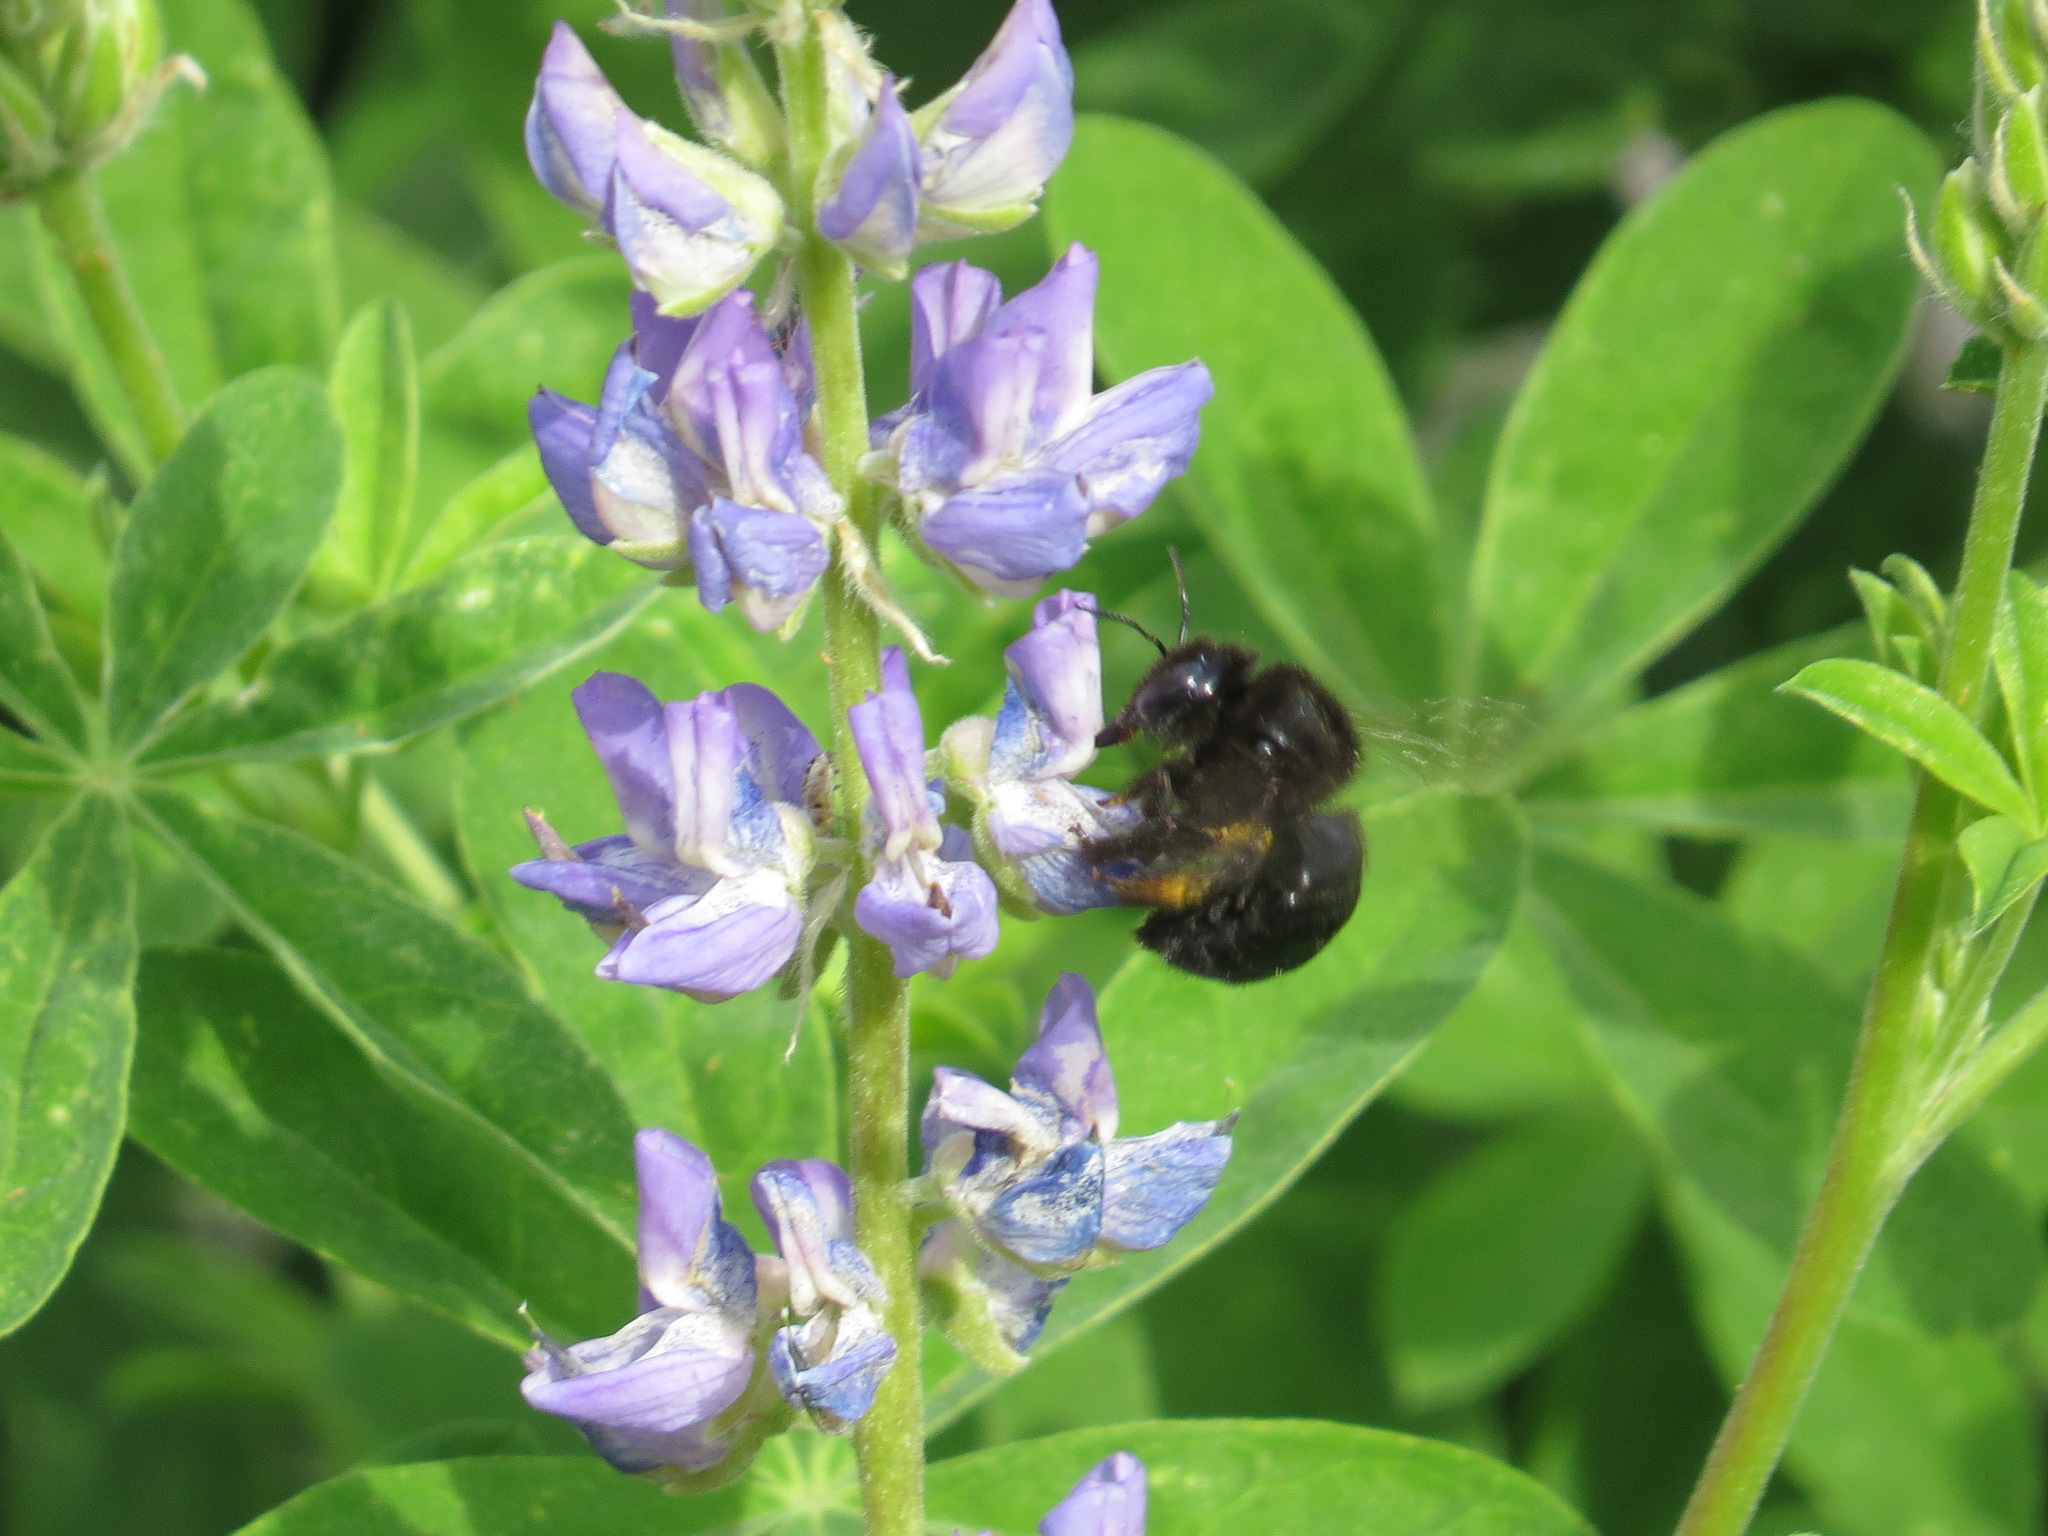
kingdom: Animalia
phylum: Arthropoda
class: Insecta
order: Hymenoptera
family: Apidae
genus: Xylocopa
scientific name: Xylocopa tabaniformis
